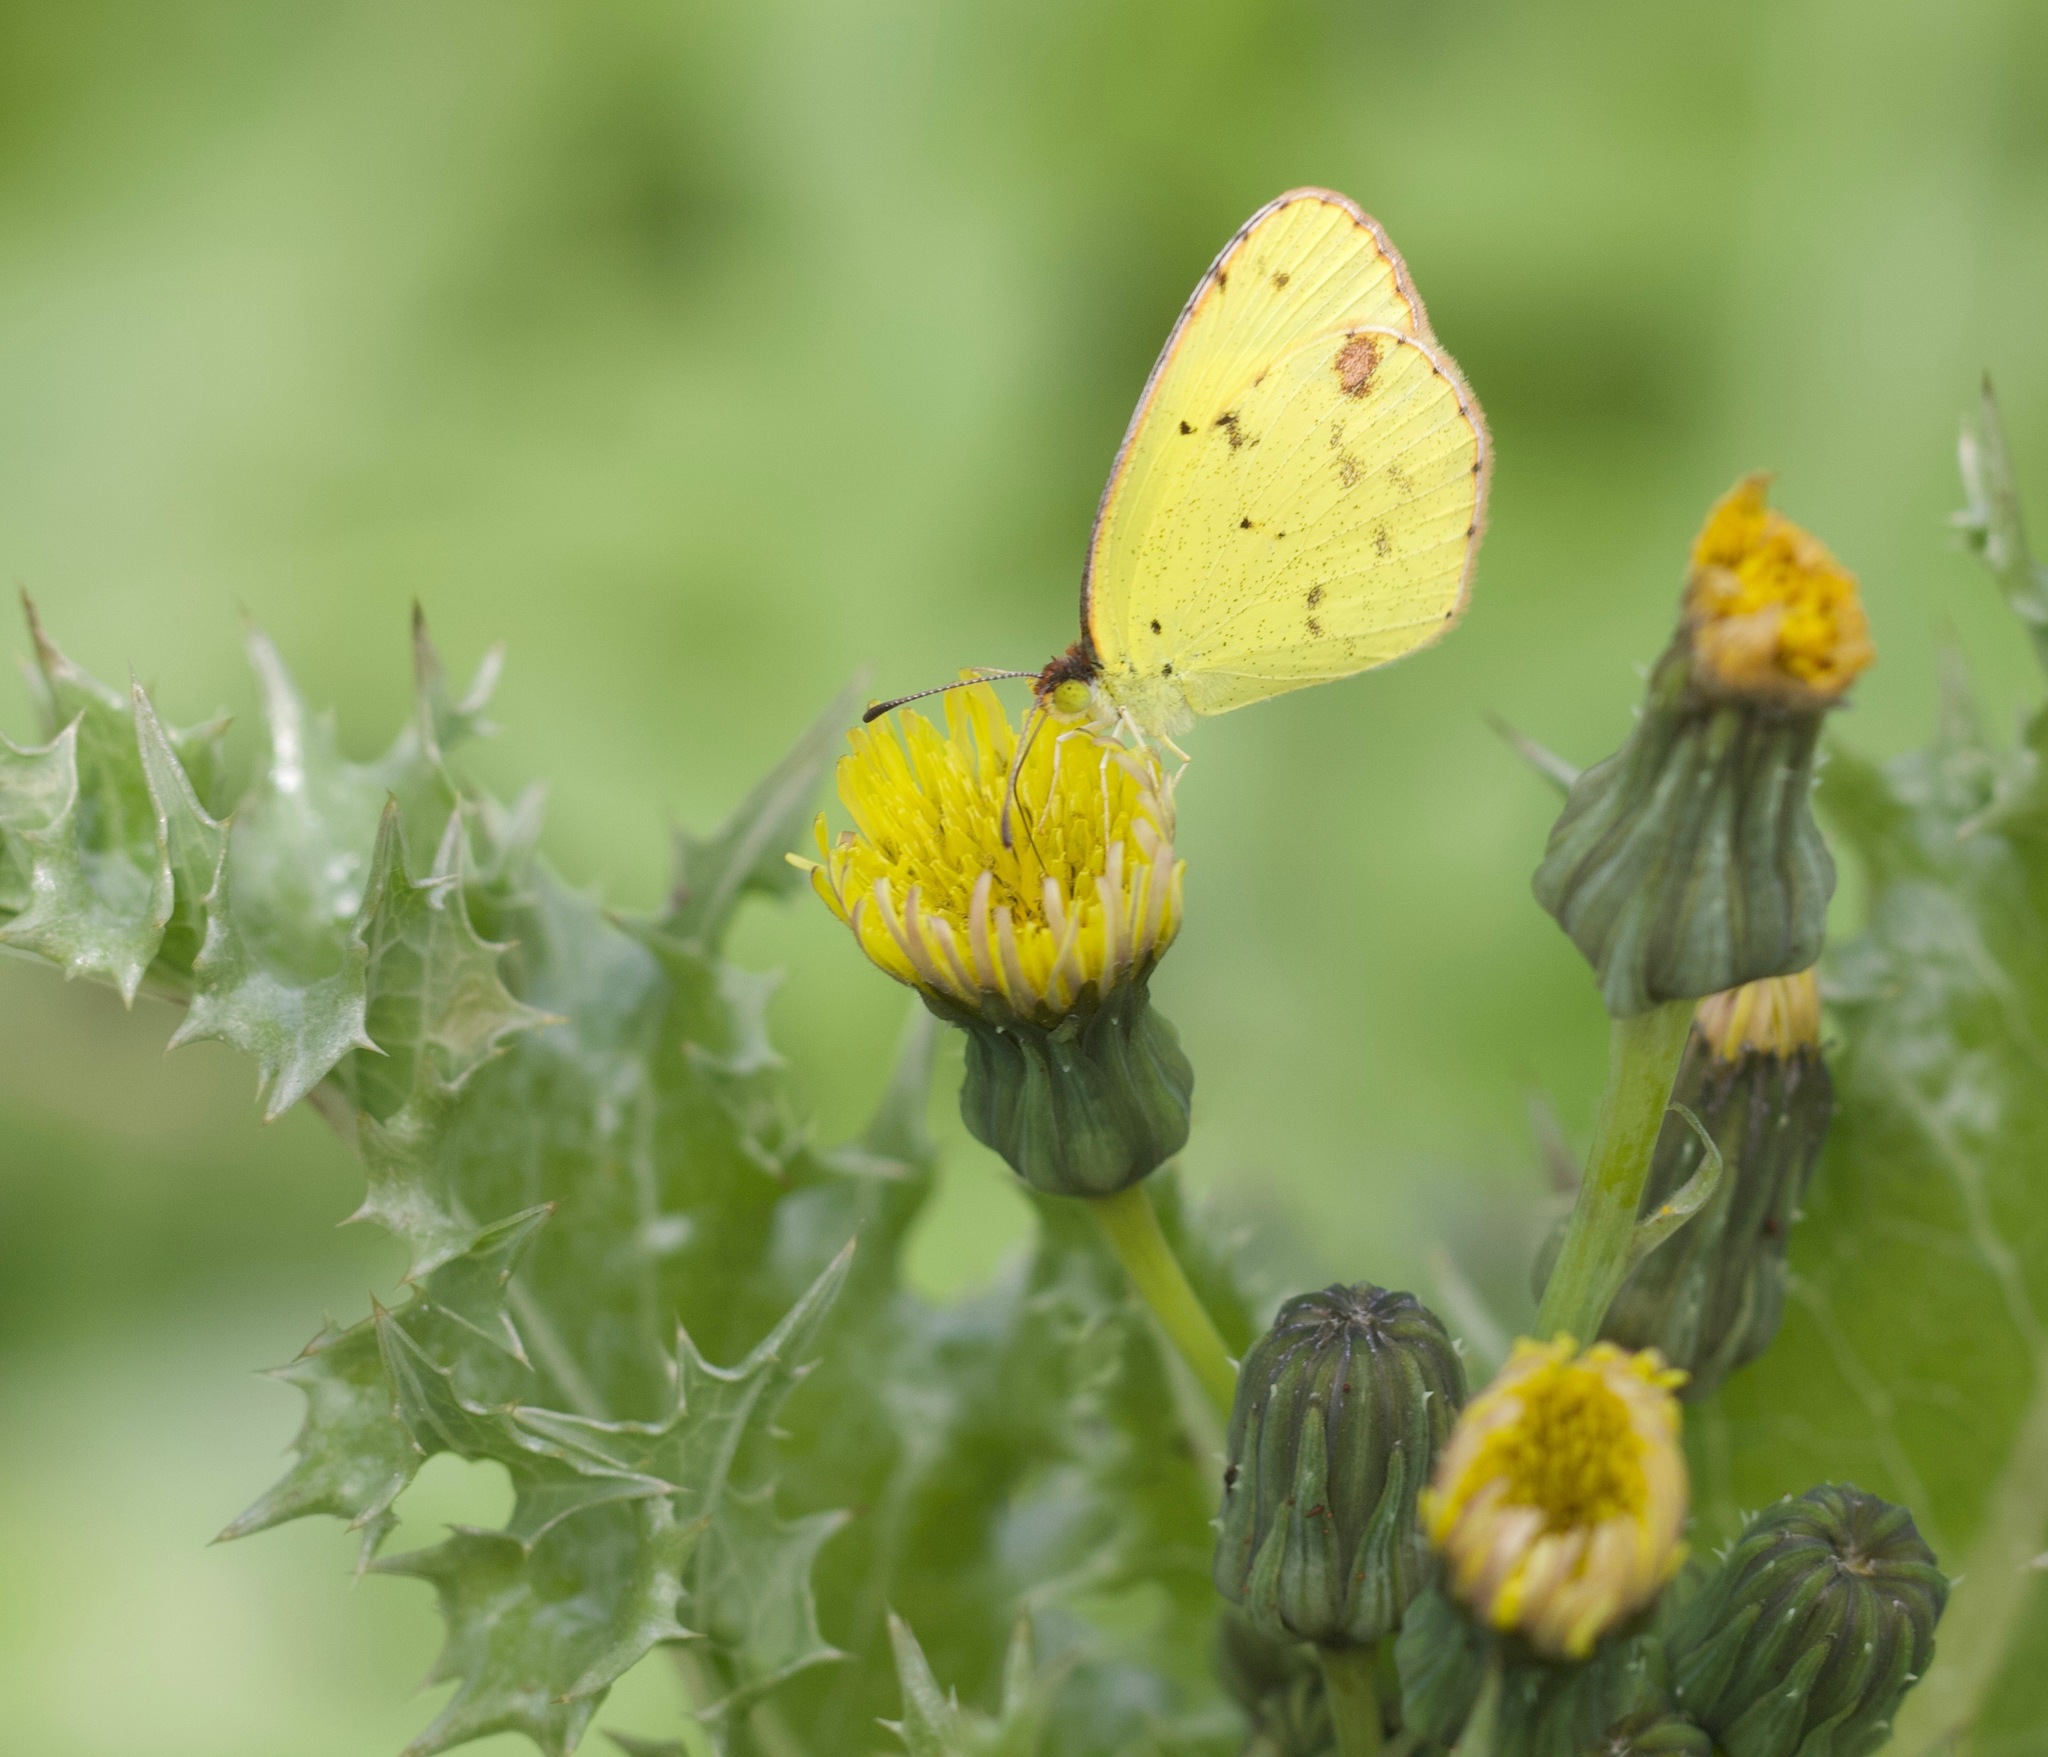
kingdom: Animalia
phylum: Arthropoda
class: Insecta
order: Lepidoptera
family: Pieridae
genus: Pyrisitia
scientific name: Pyrisitia lisa
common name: Little yellow
